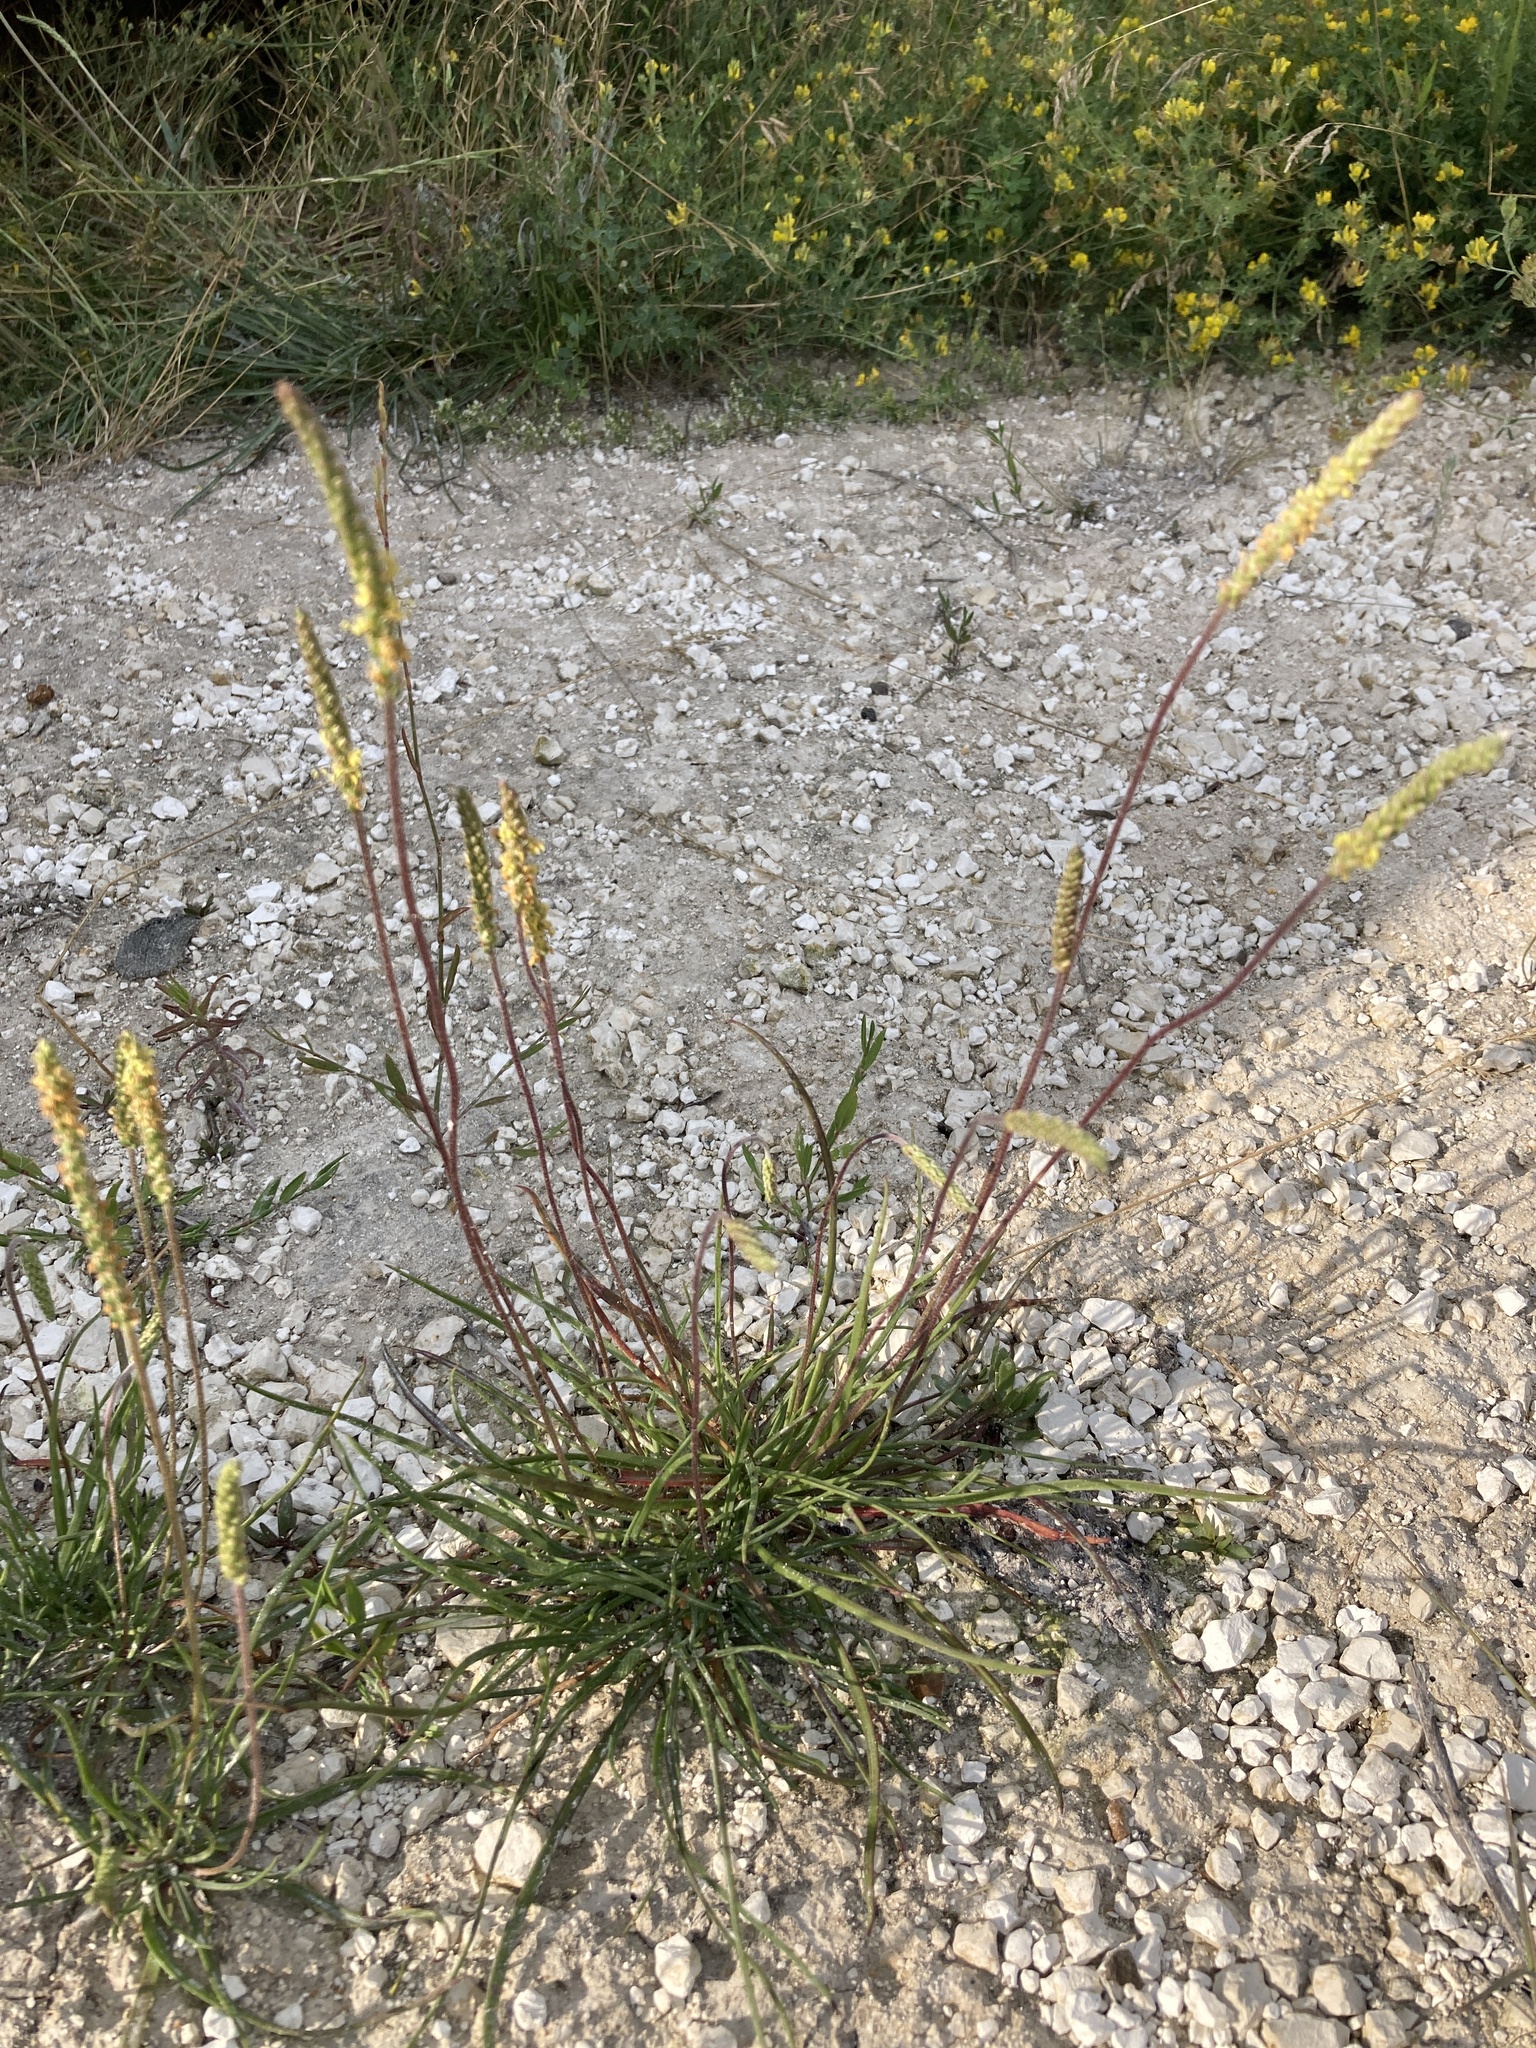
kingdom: Plantae
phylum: Tracheophyta
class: Magnoliopsida
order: Lamiales
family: Plantaginaceae
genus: Plantago
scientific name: Plantago salsa
